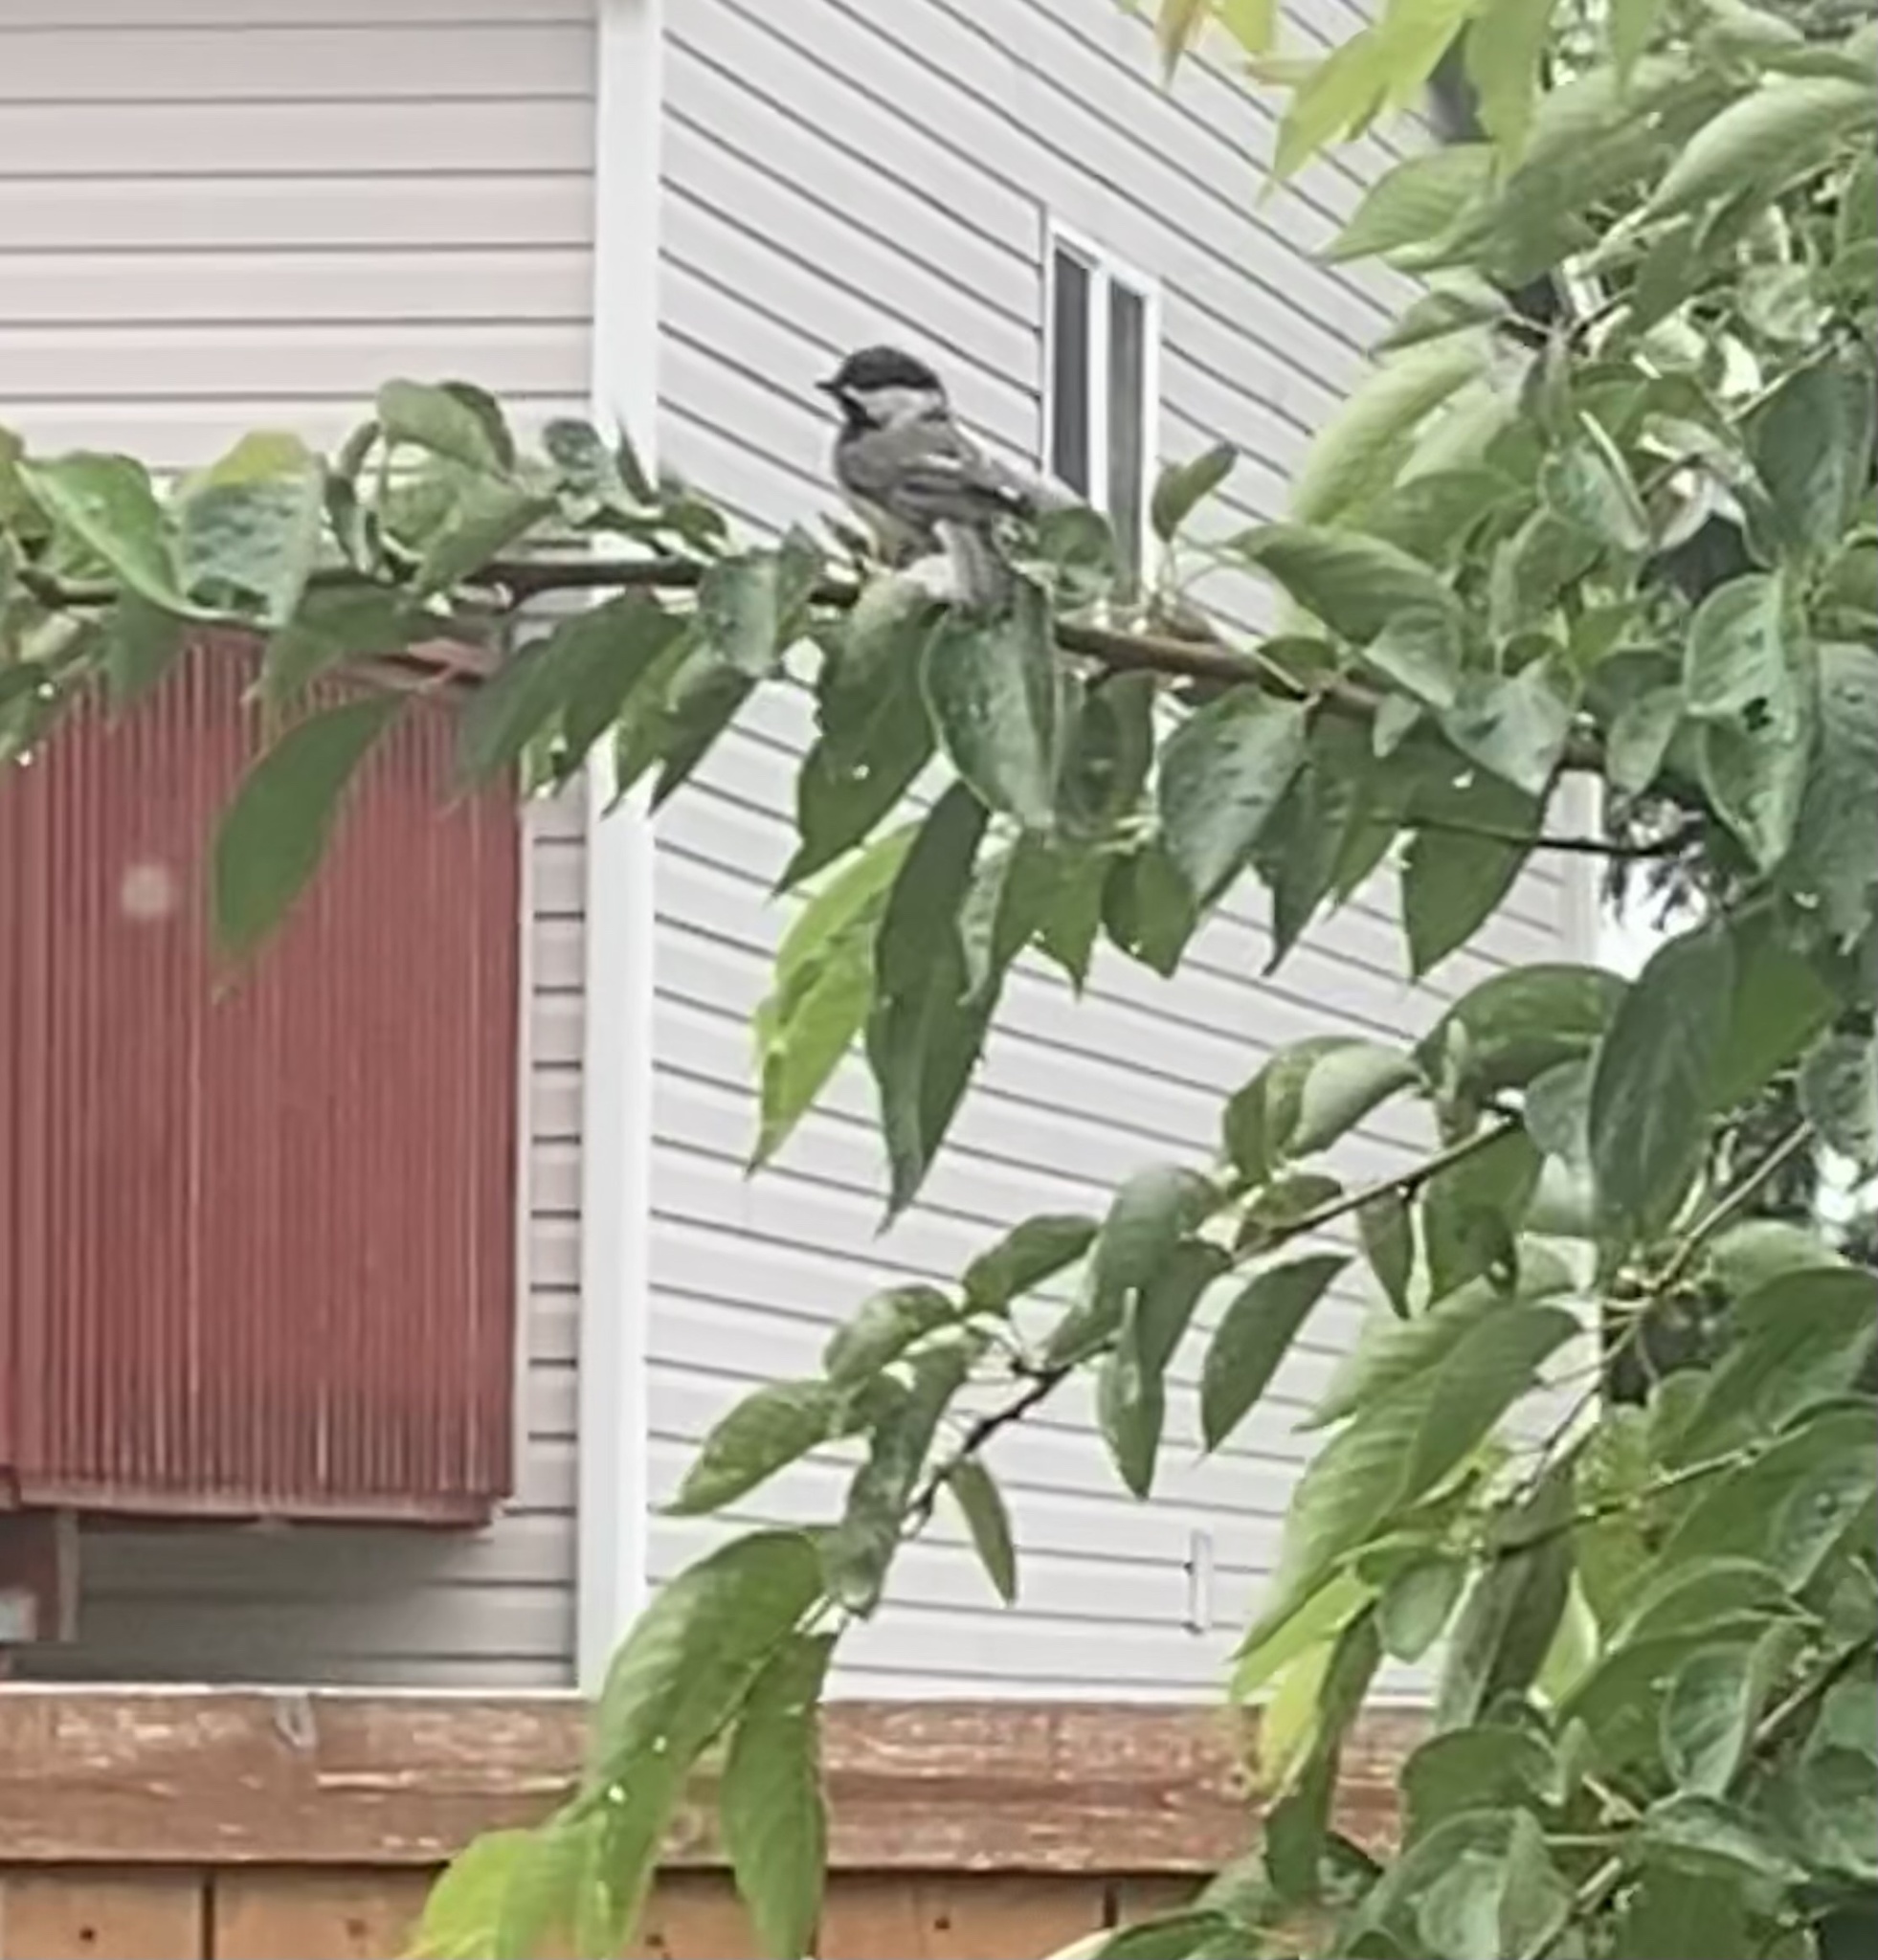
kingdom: Animalia
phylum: Chordata
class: Aves
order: Passeriformes
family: Paridae
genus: Poecile
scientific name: Poecile atricapillus
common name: Black-capped chickadee
